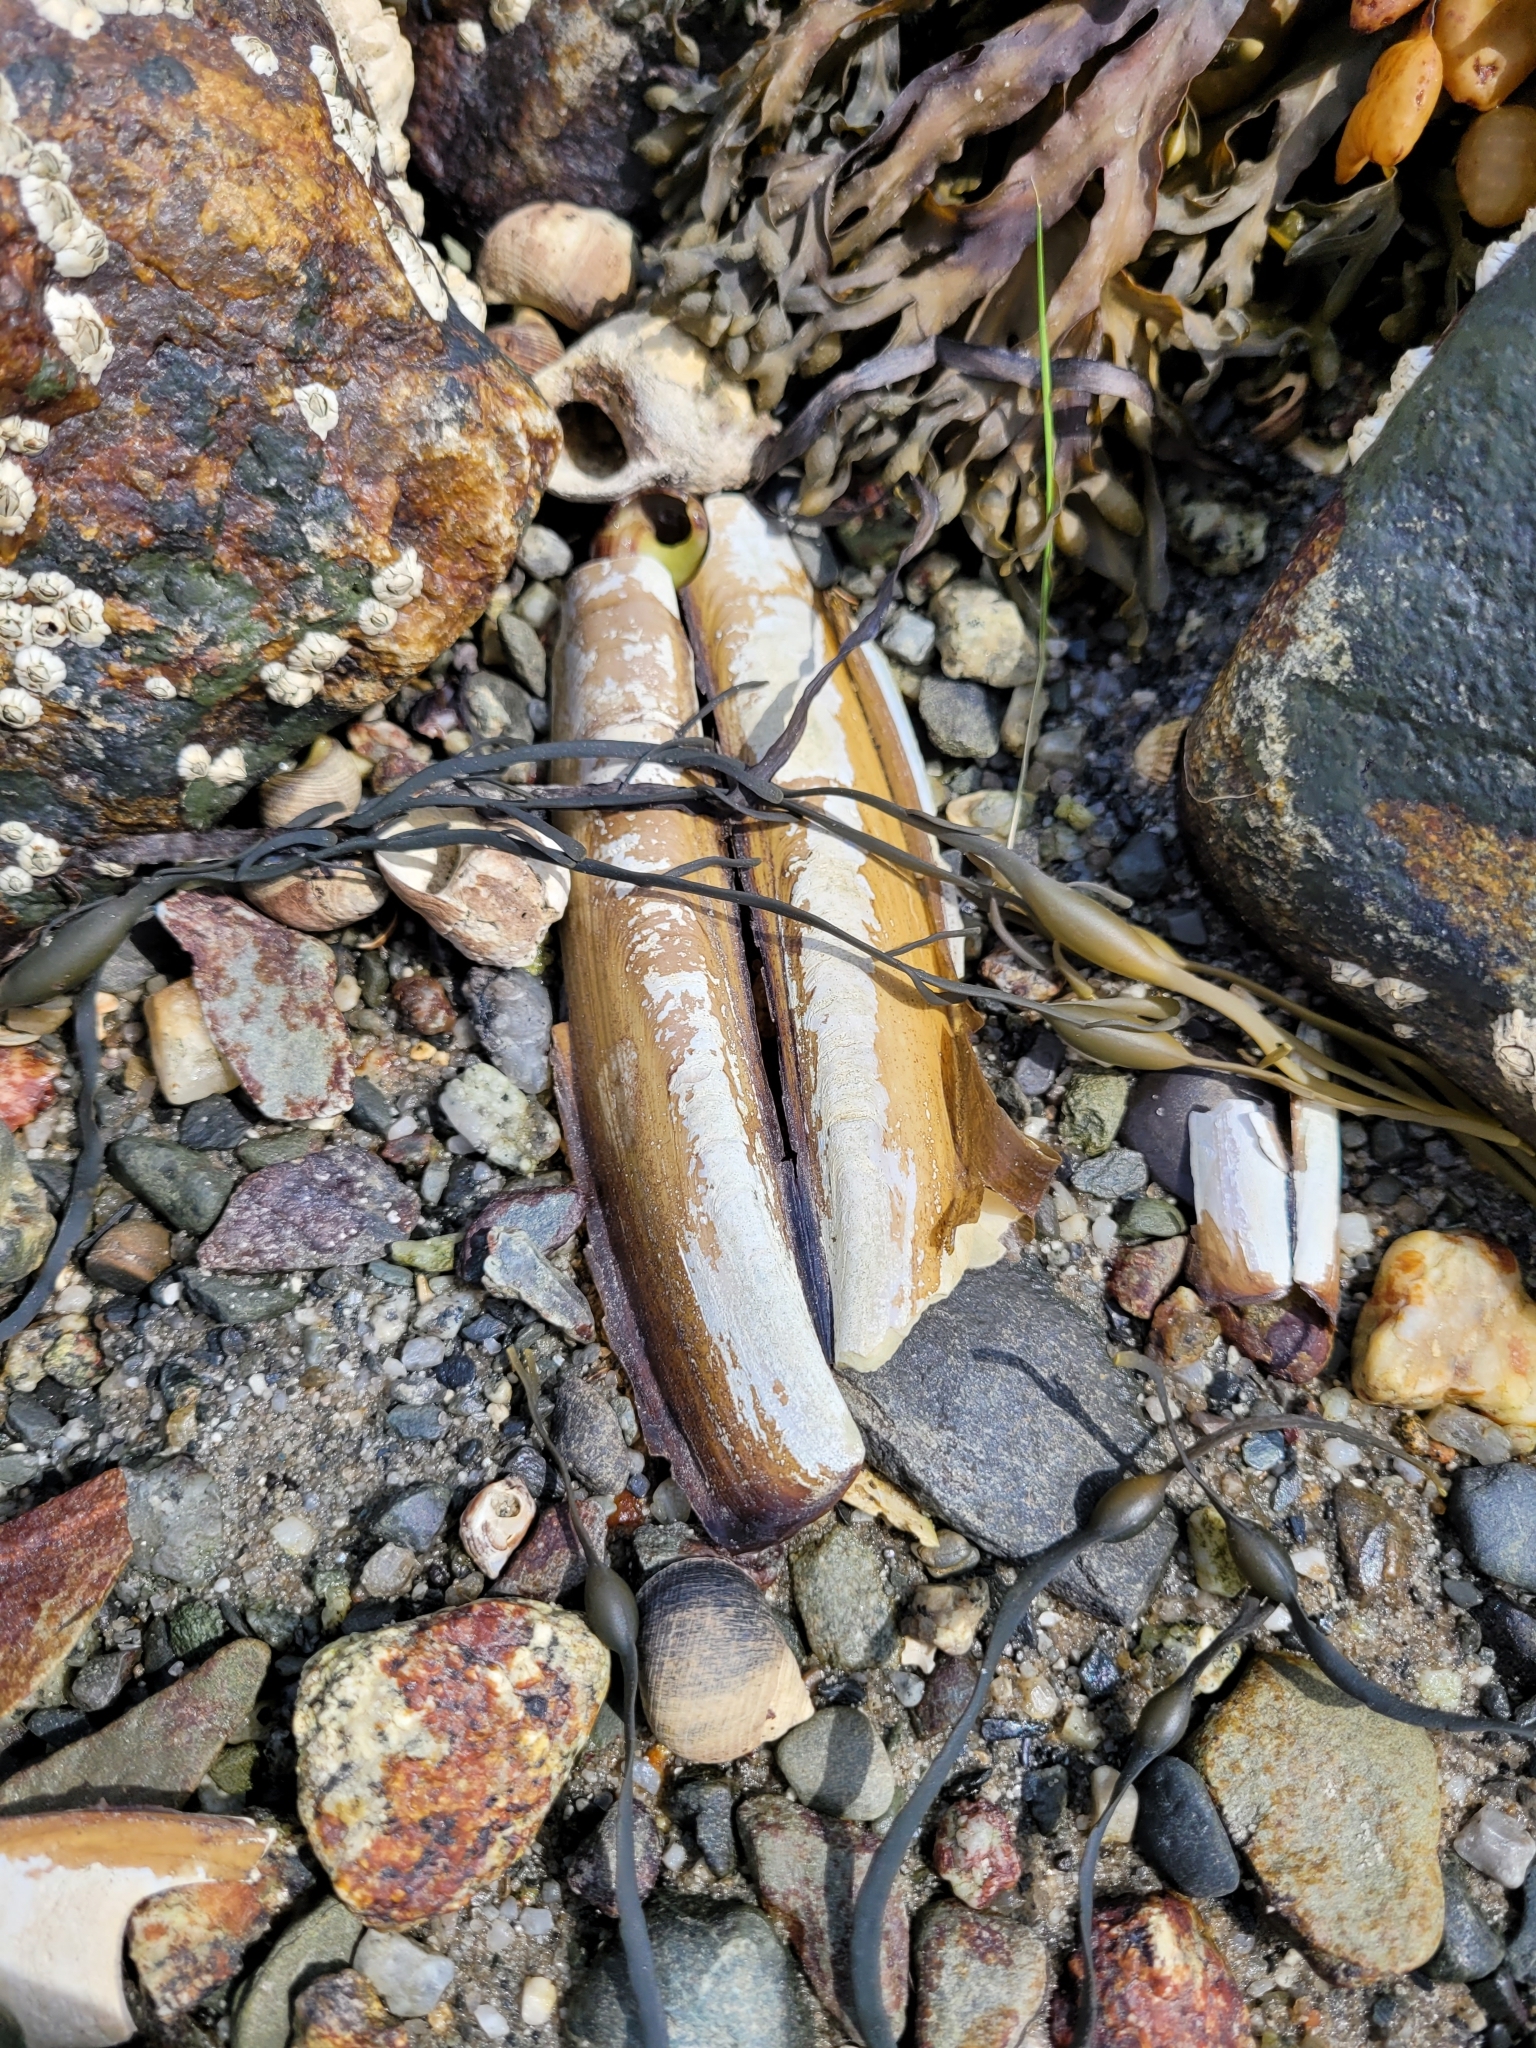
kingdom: Animalia
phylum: Mollusca
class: Bivalvia
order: Adapedonta
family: Pharidae
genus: Ensis
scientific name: Ensis leei
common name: American jack knife clam
